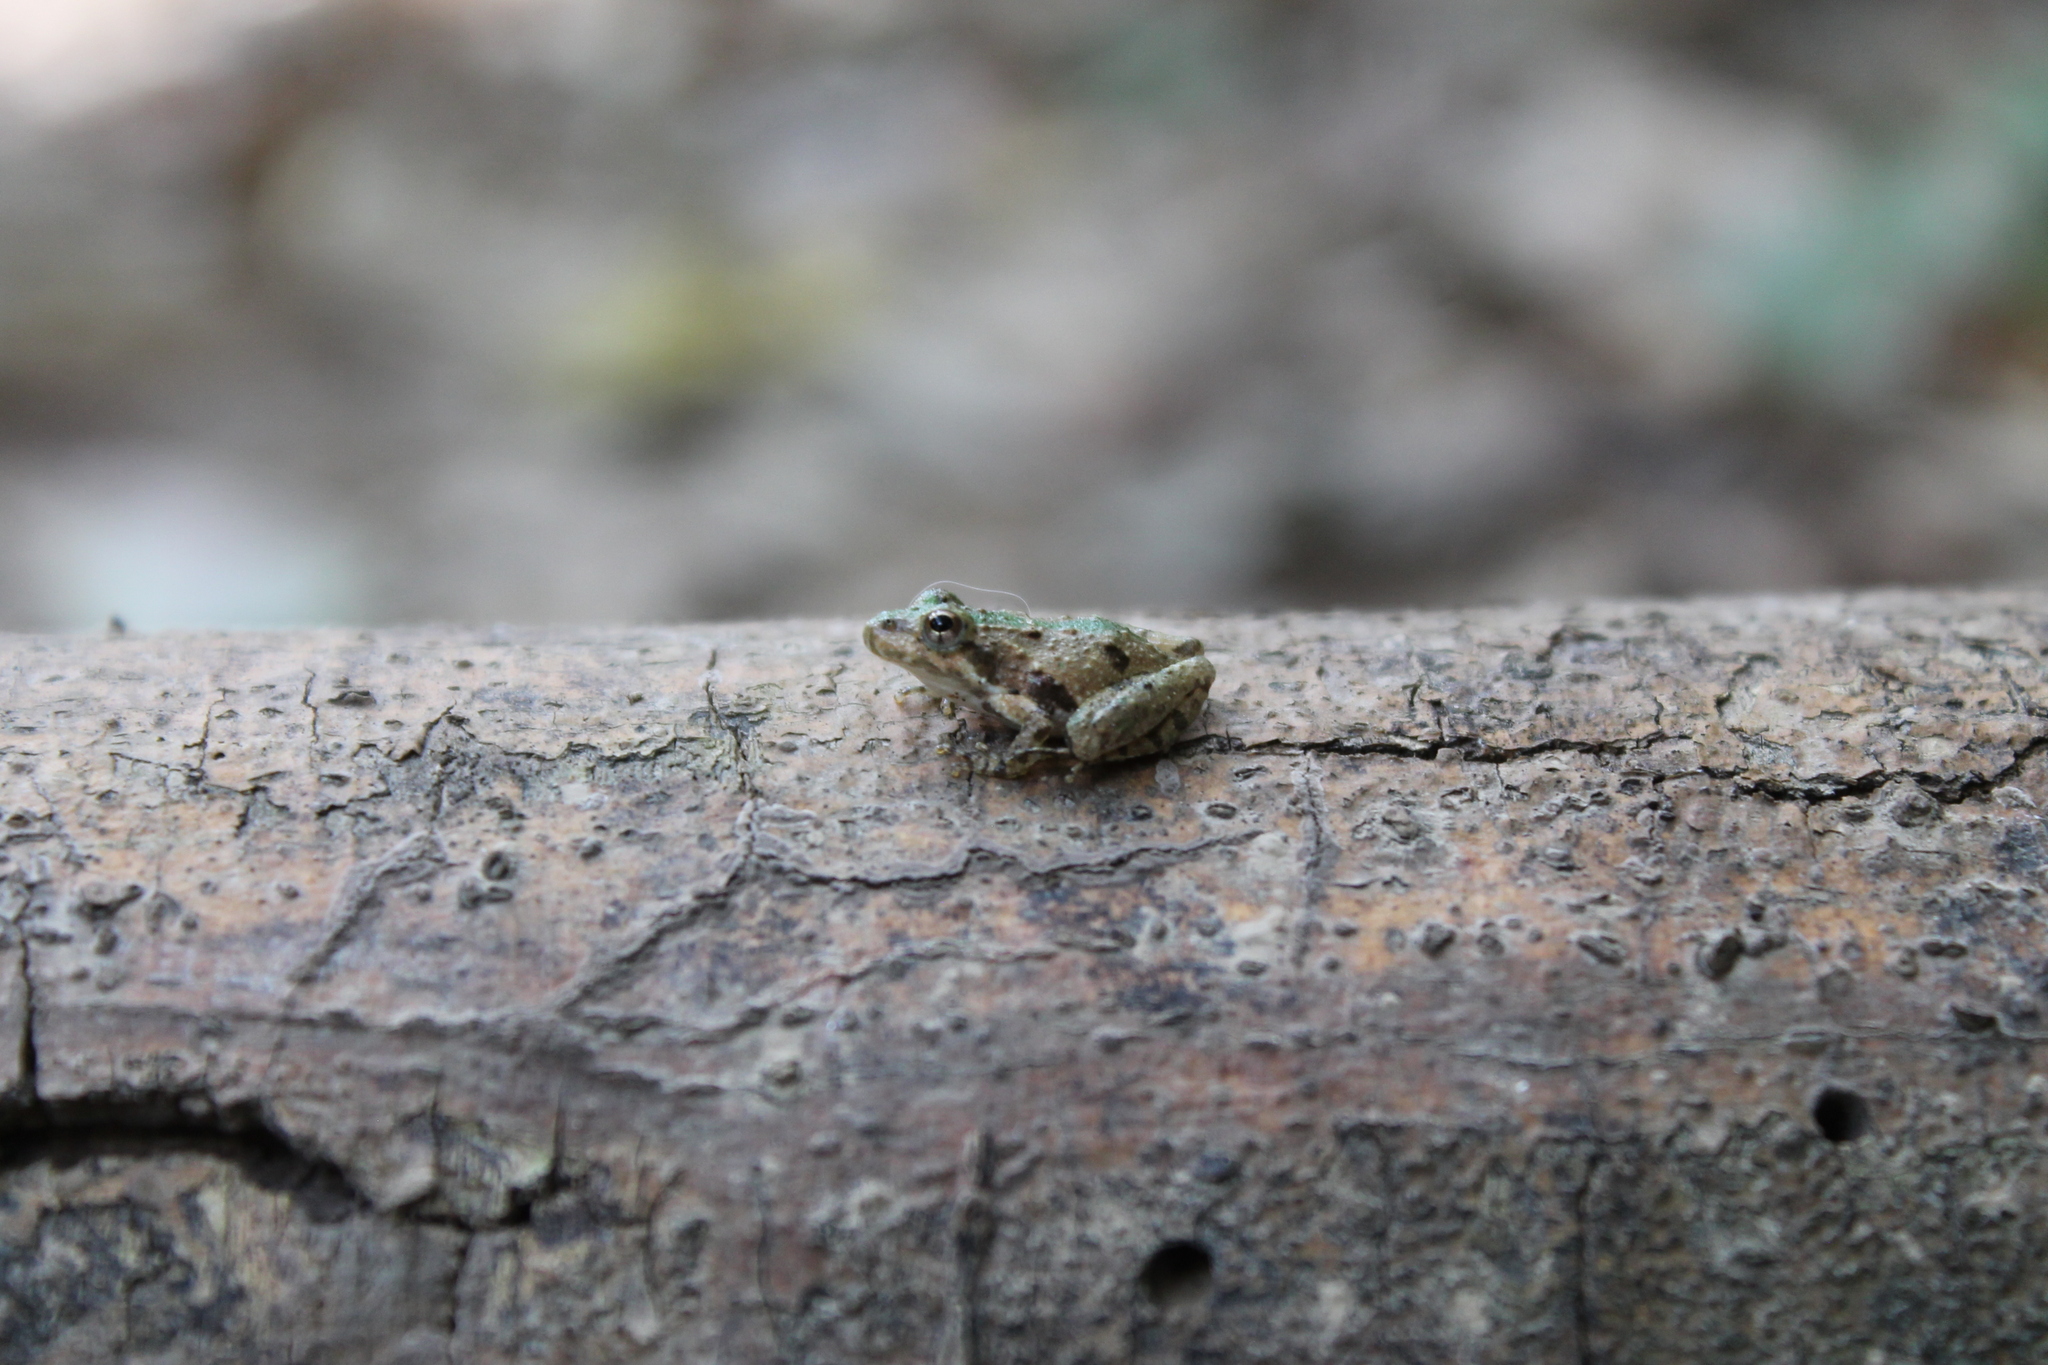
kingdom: Animalia
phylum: Chordata
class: Amphibia
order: Anura
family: Hylidae
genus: Acris
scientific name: Acris crepitans
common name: Northern cricket frog
